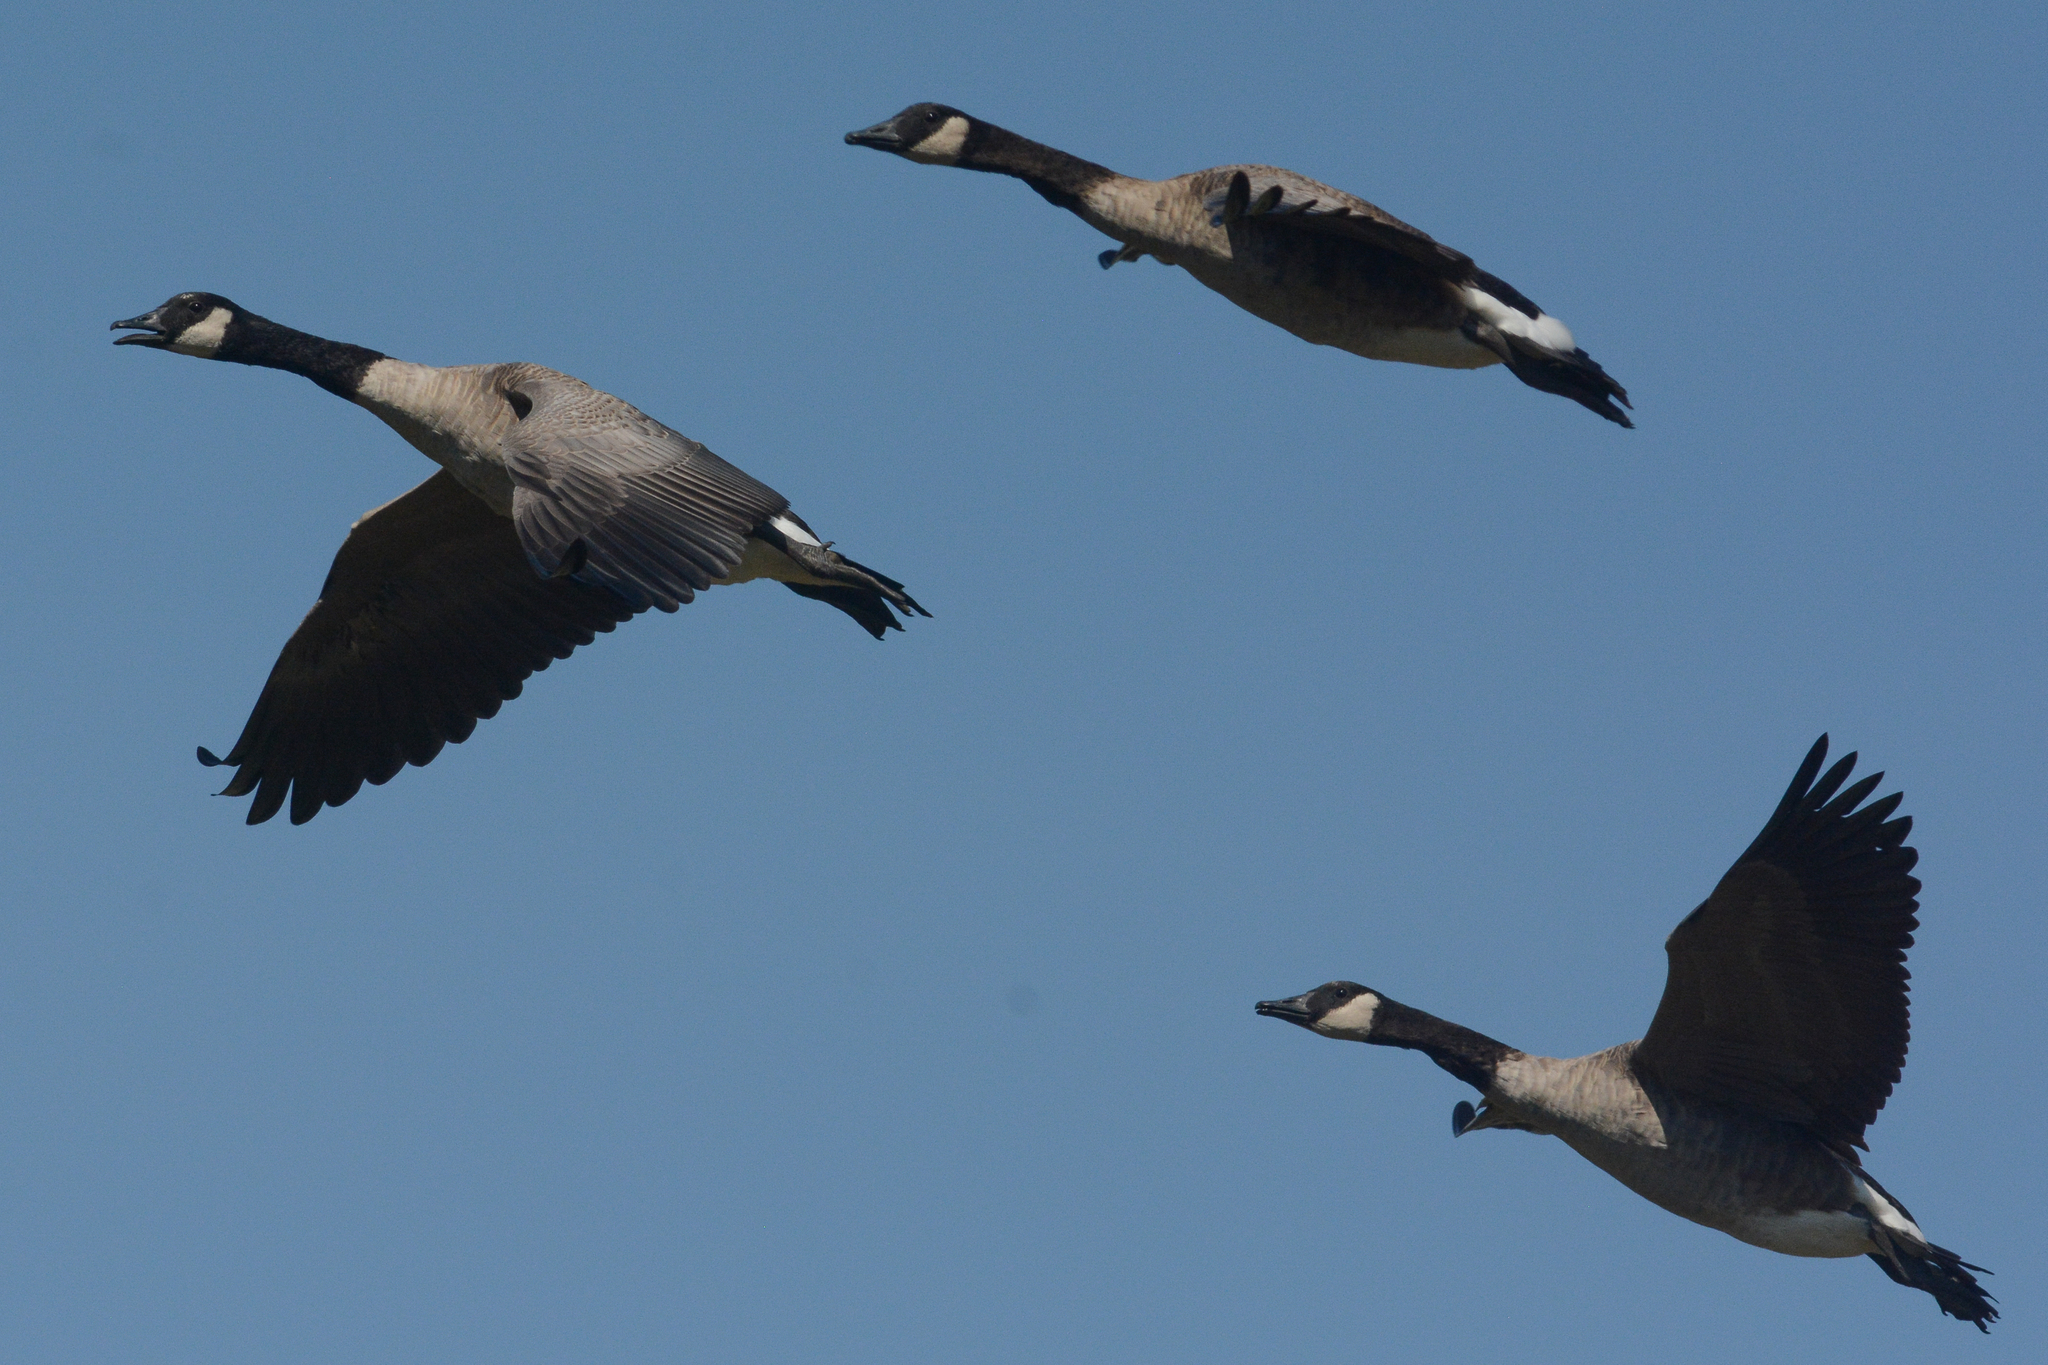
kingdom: Animalia
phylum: Chordata
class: Aves
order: Anseriformes
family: Anatidae
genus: Branta
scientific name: Branta canadensis
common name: Canada goose
